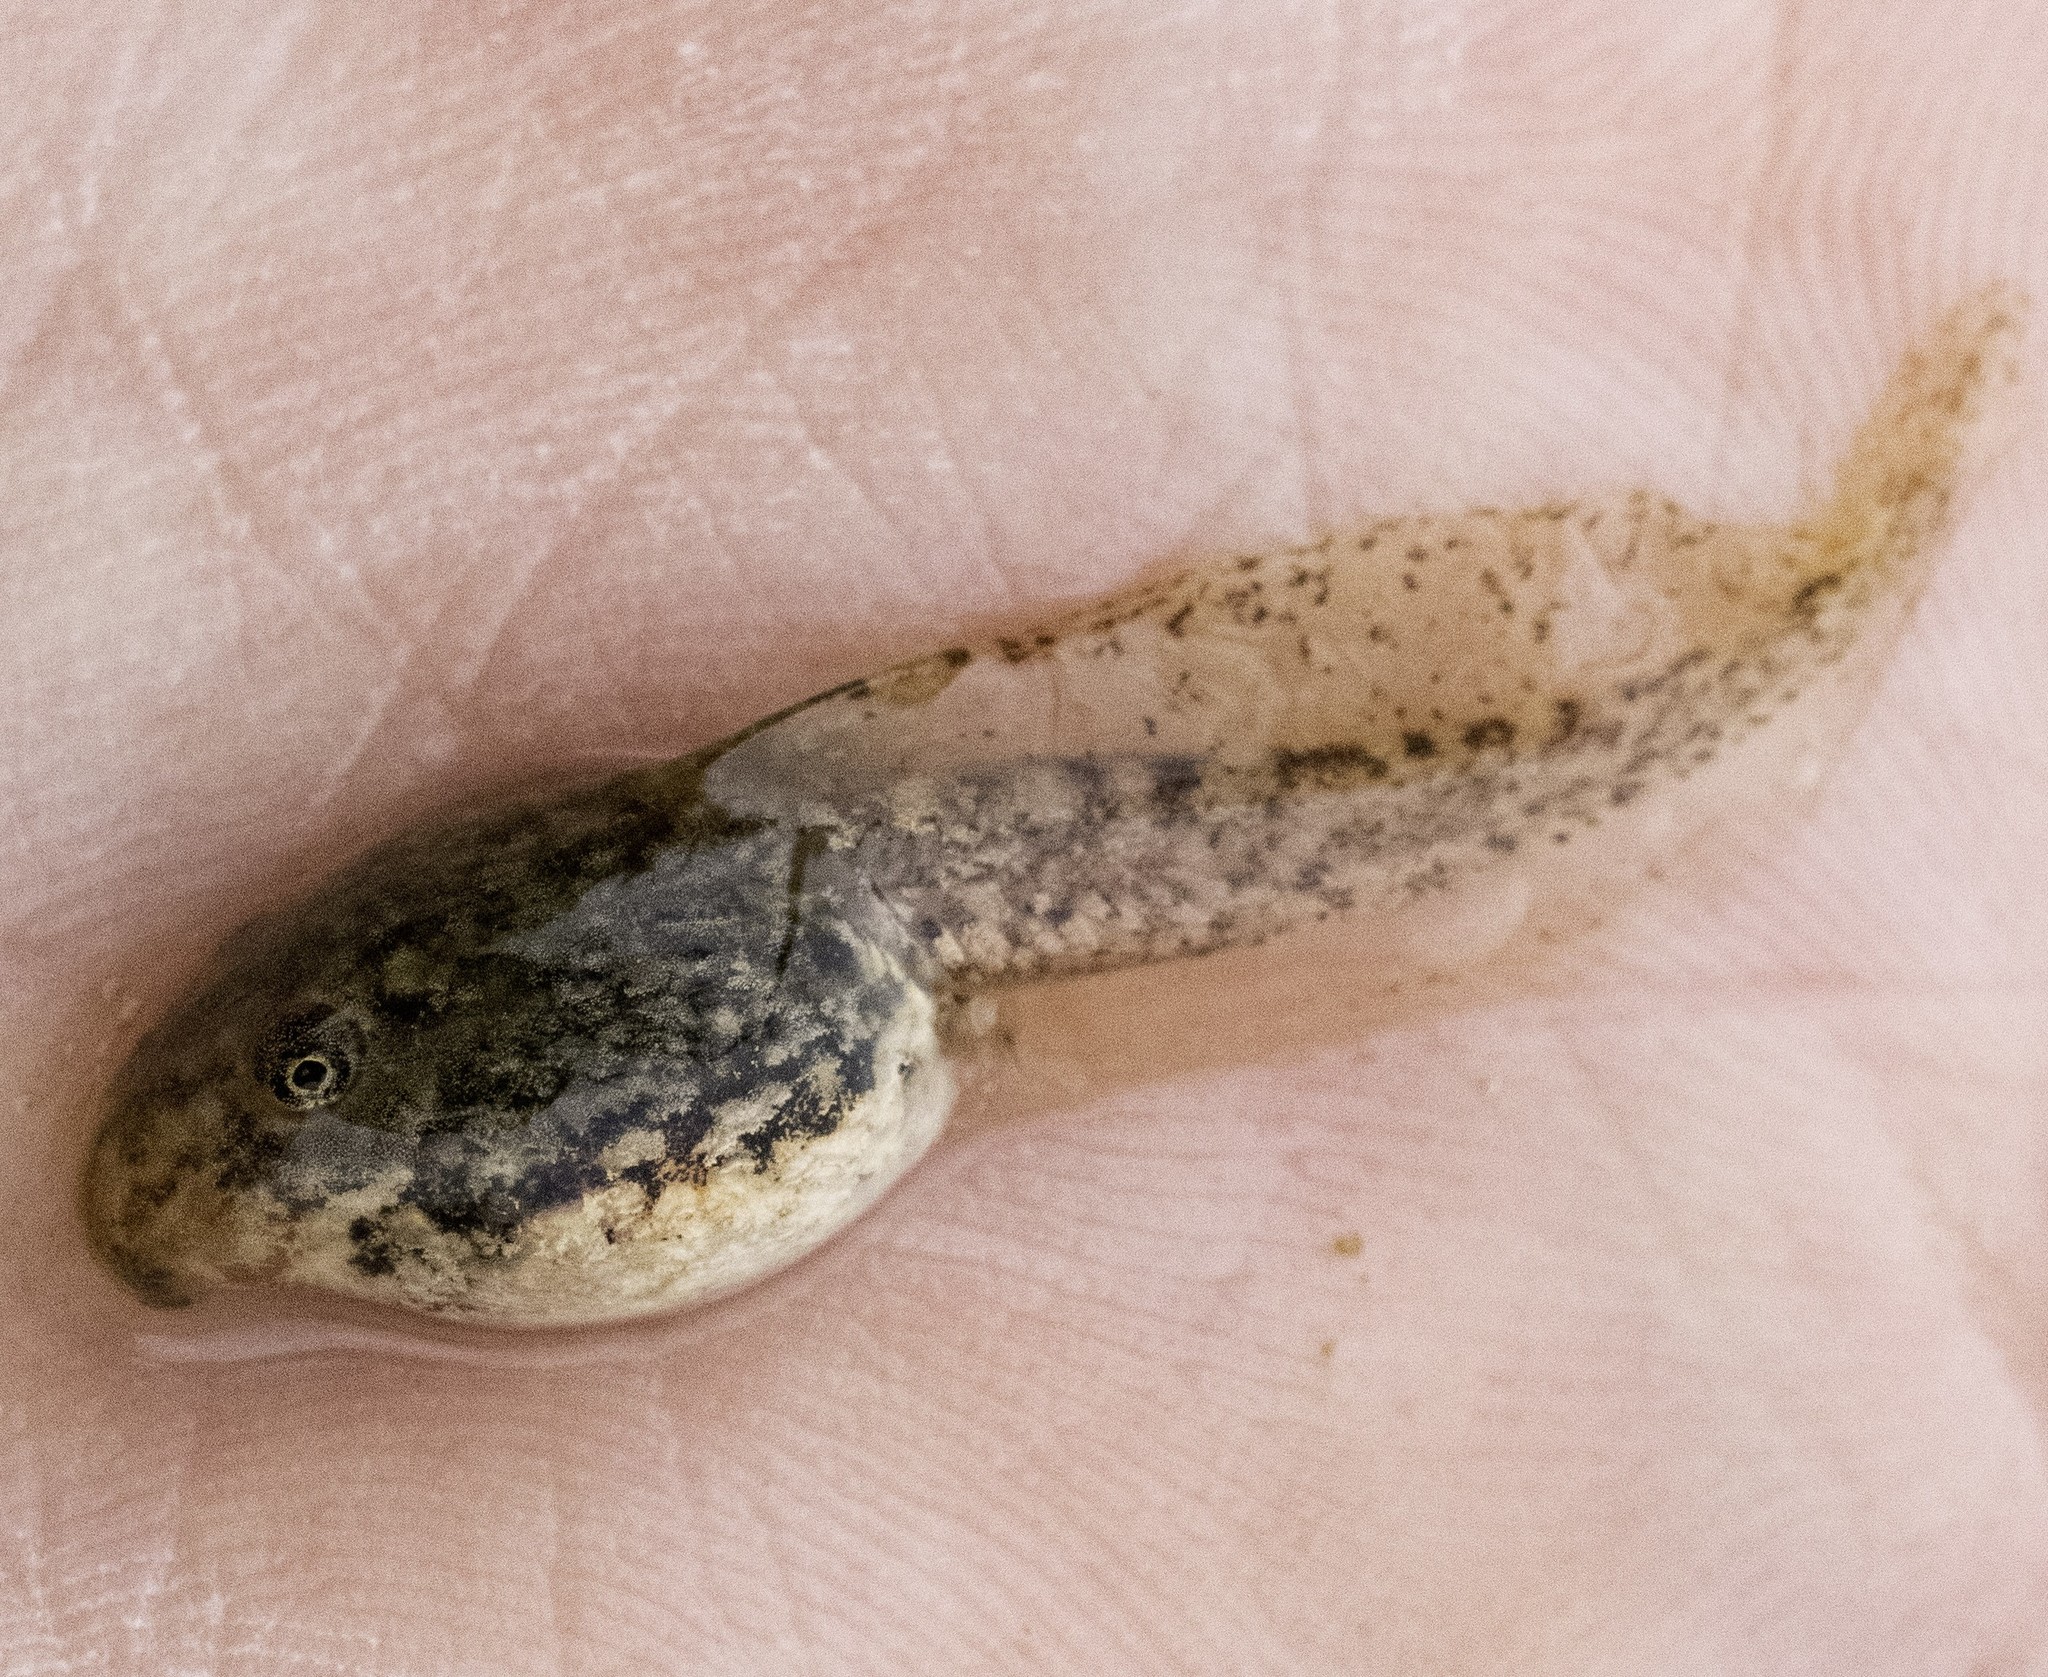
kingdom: Animalia
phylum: Chordata
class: Amphibia
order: Anura
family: Hylidae
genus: Pseudacris
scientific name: Pseudacris cadaverina
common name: California chorus frog
